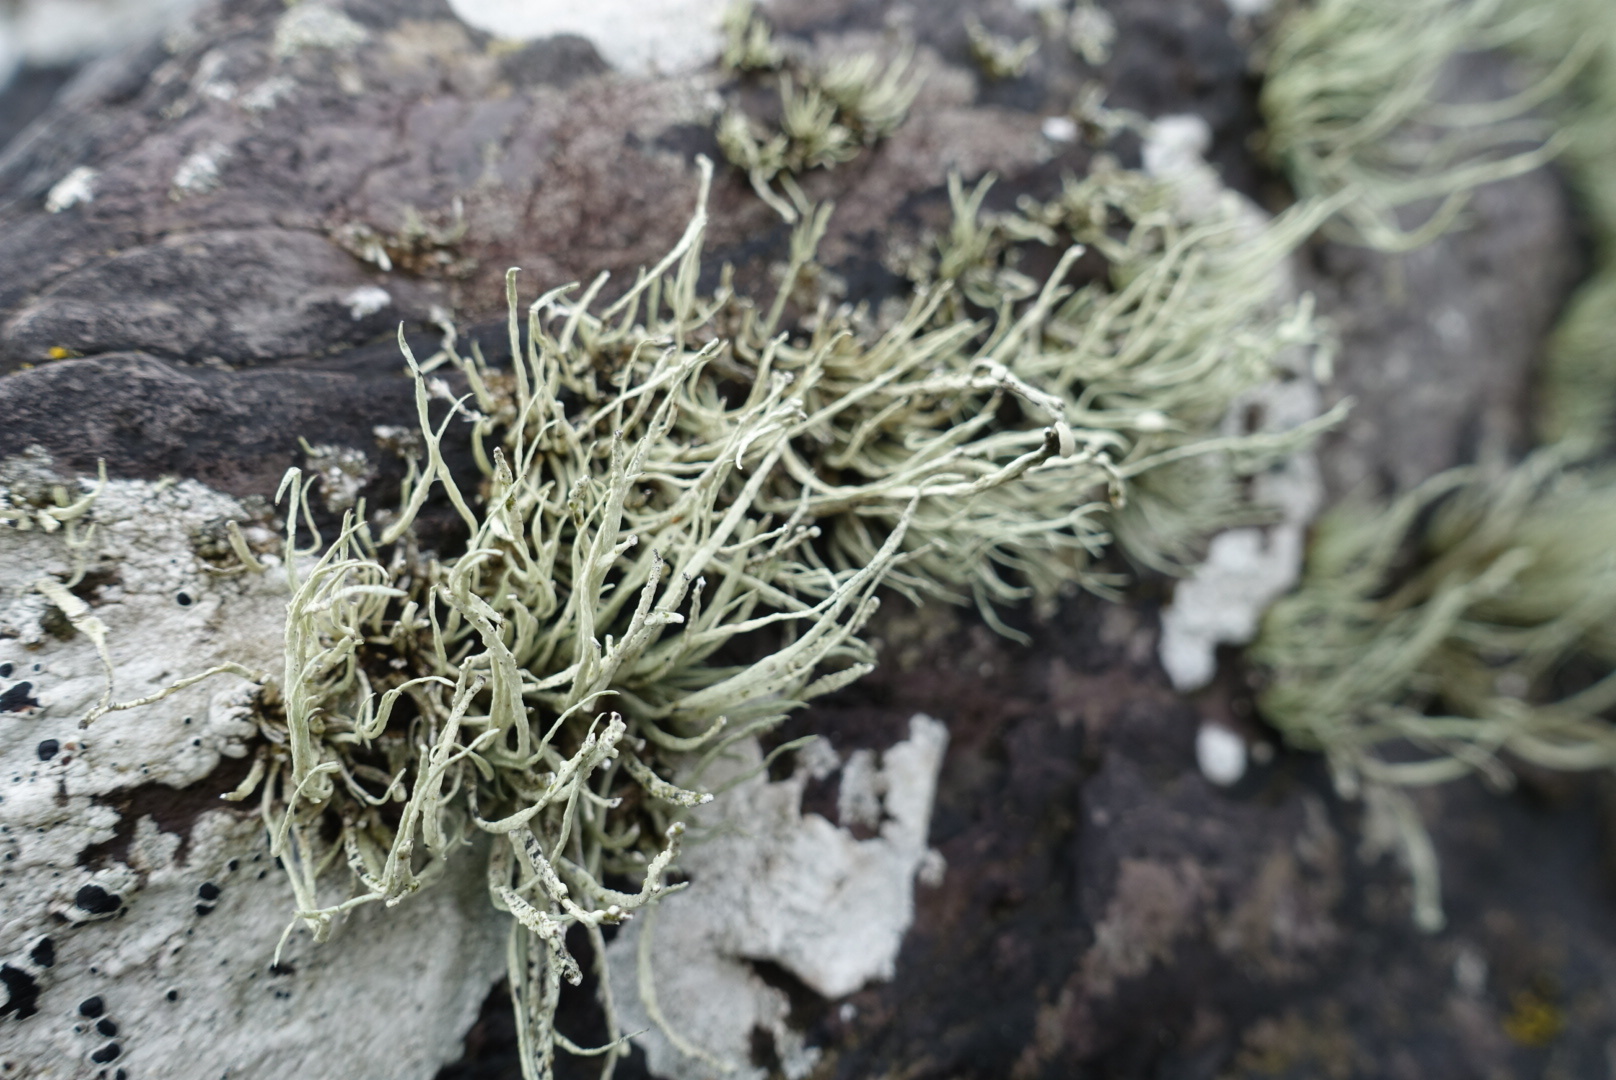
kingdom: Fungi
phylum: Ascomycota
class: Lecanoromycetes
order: Lecanorales
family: Ramalinaceae
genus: Ramalina
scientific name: Ramalina cuspidata
